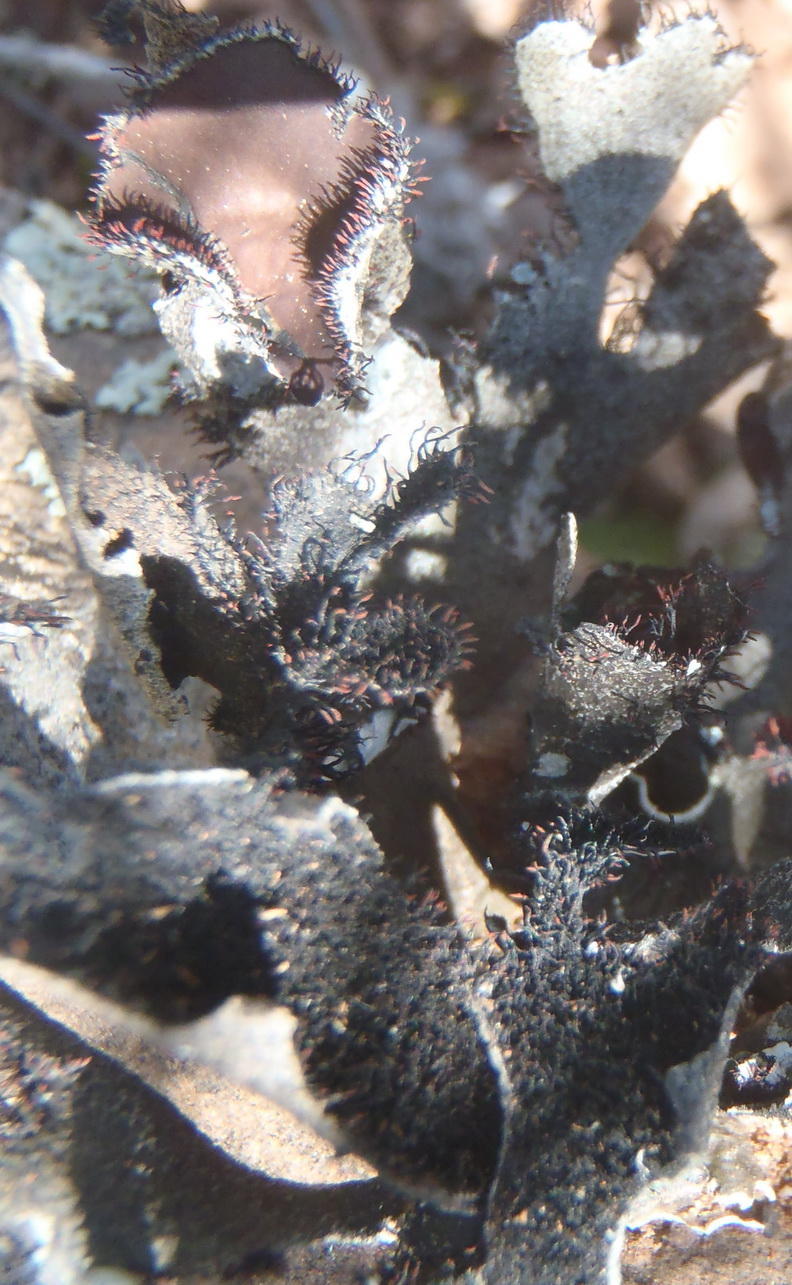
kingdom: Fungi
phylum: Ascomycota
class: Lecanoromycetes
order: Lecanorales
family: Parmeliaceae
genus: Xanthoparmelia
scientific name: Xanthoparmelia hottentotta
